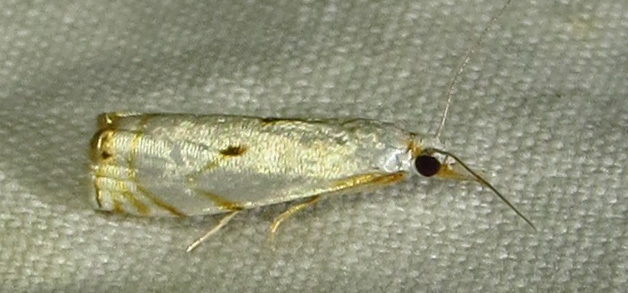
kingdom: Animalia
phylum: Arthropoda
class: Insecta
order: Lepidoptera
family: Crambidae
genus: Microcrambus
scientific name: Microcrambus biguttellus
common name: Gold-stripe grass-veneer moth
